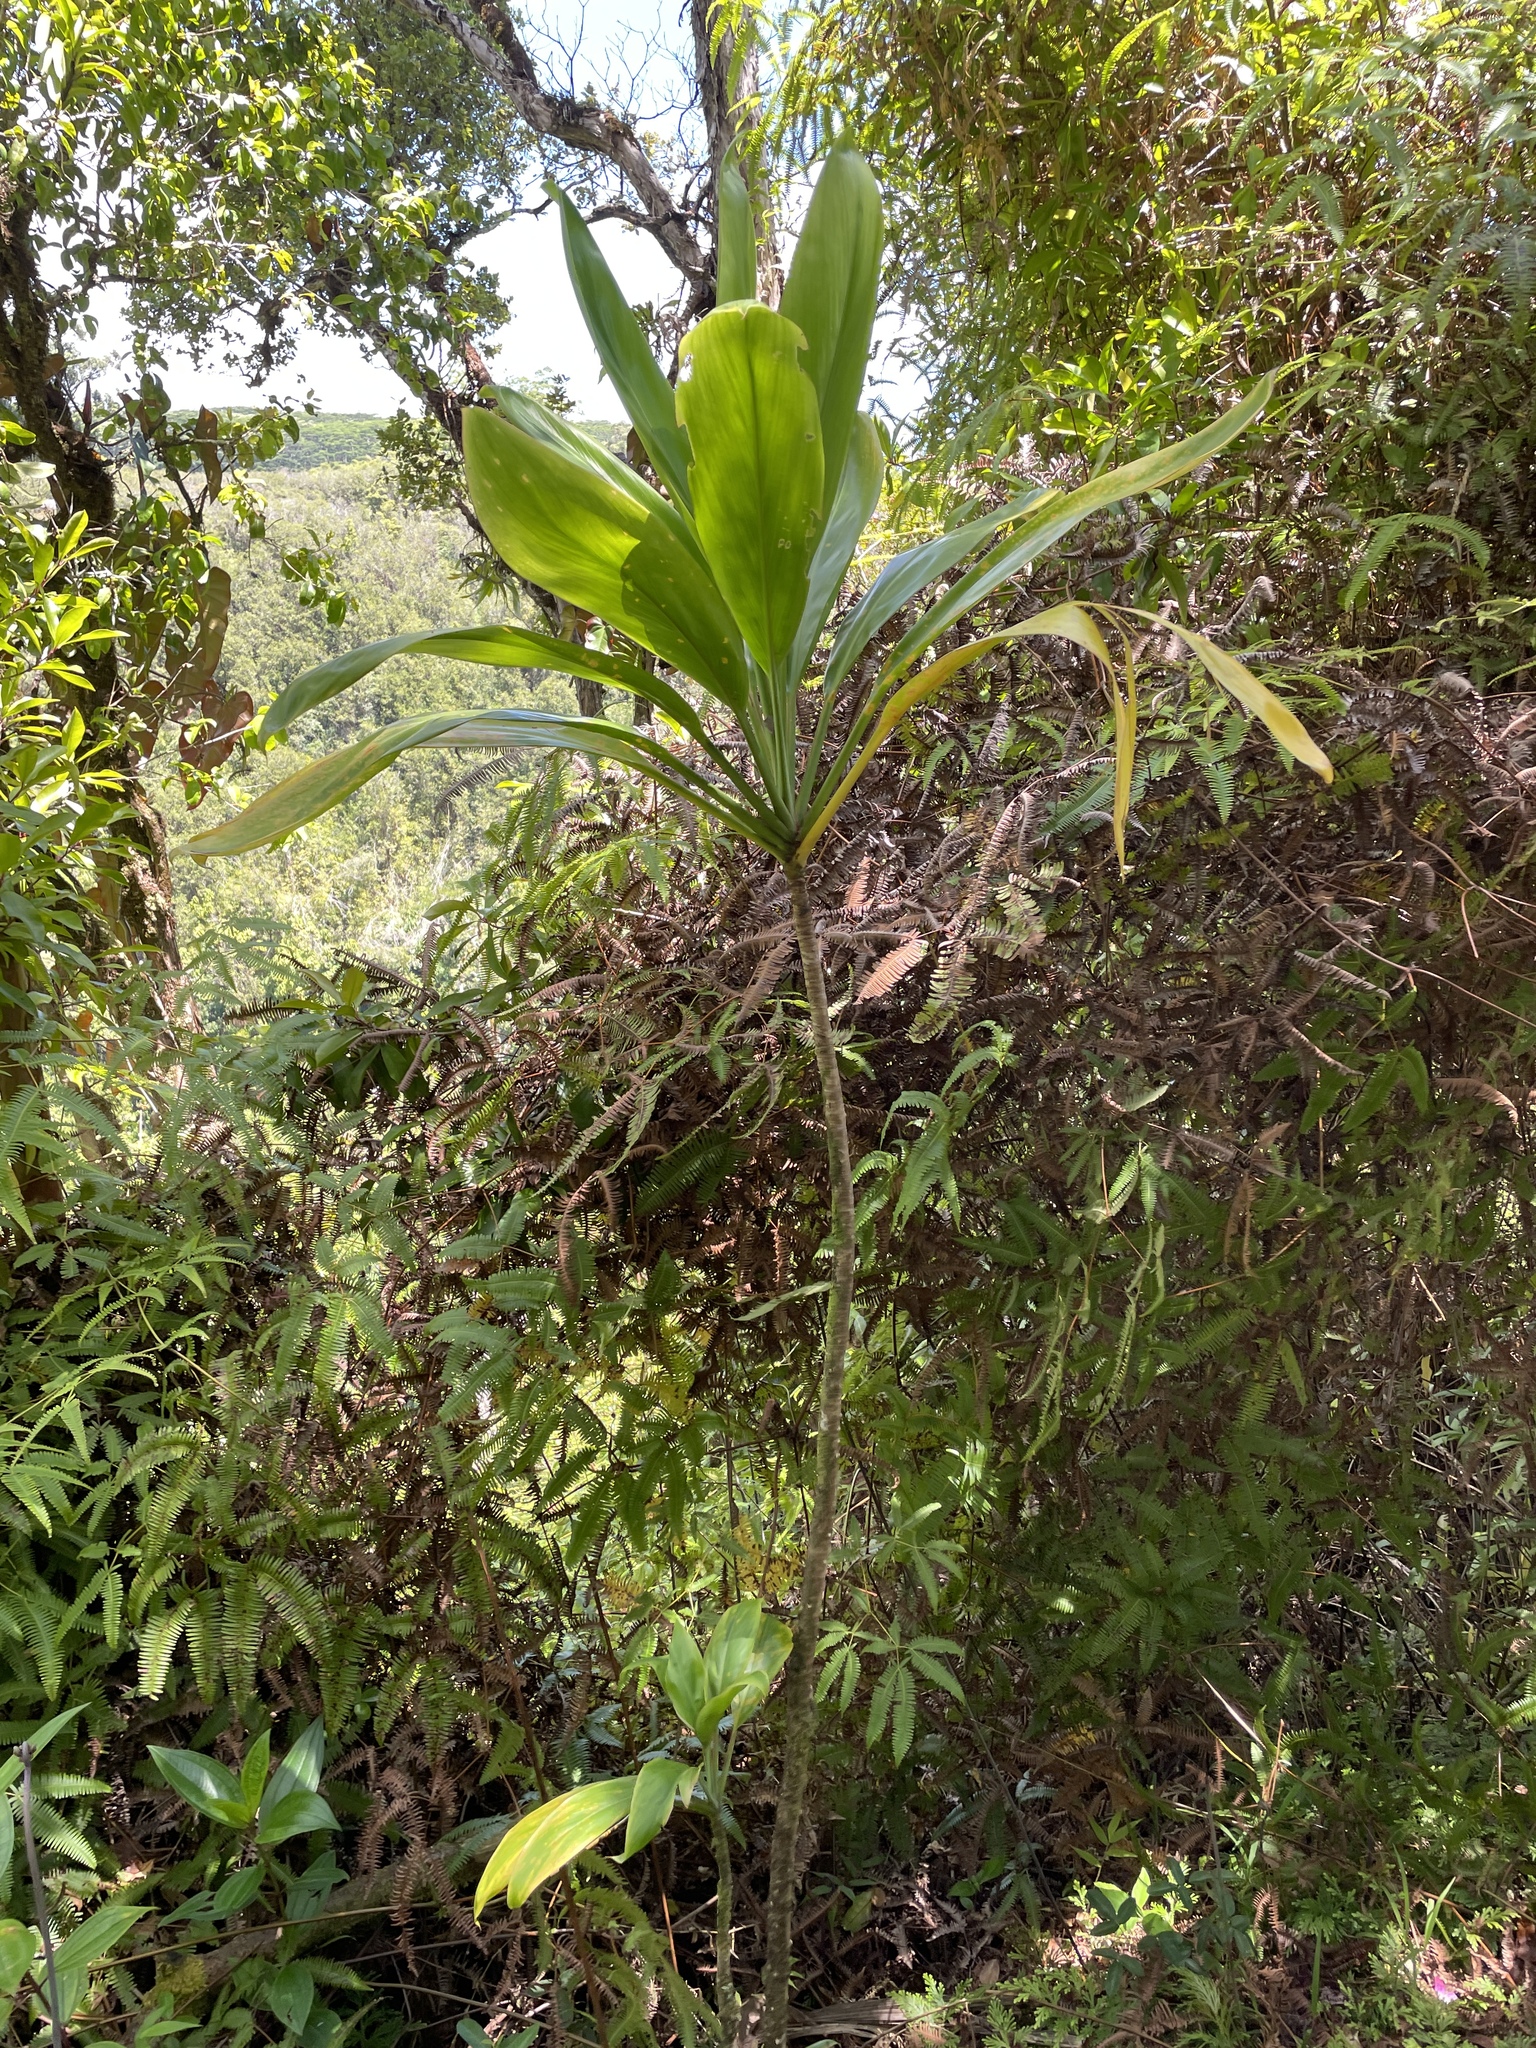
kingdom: Plantae
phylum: Tracheophyta
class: Liliopsida
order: Asparagales
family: Asparagaceae
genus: Cordyline
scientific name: Cordyline fruticosa
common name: Good-luck-plant
